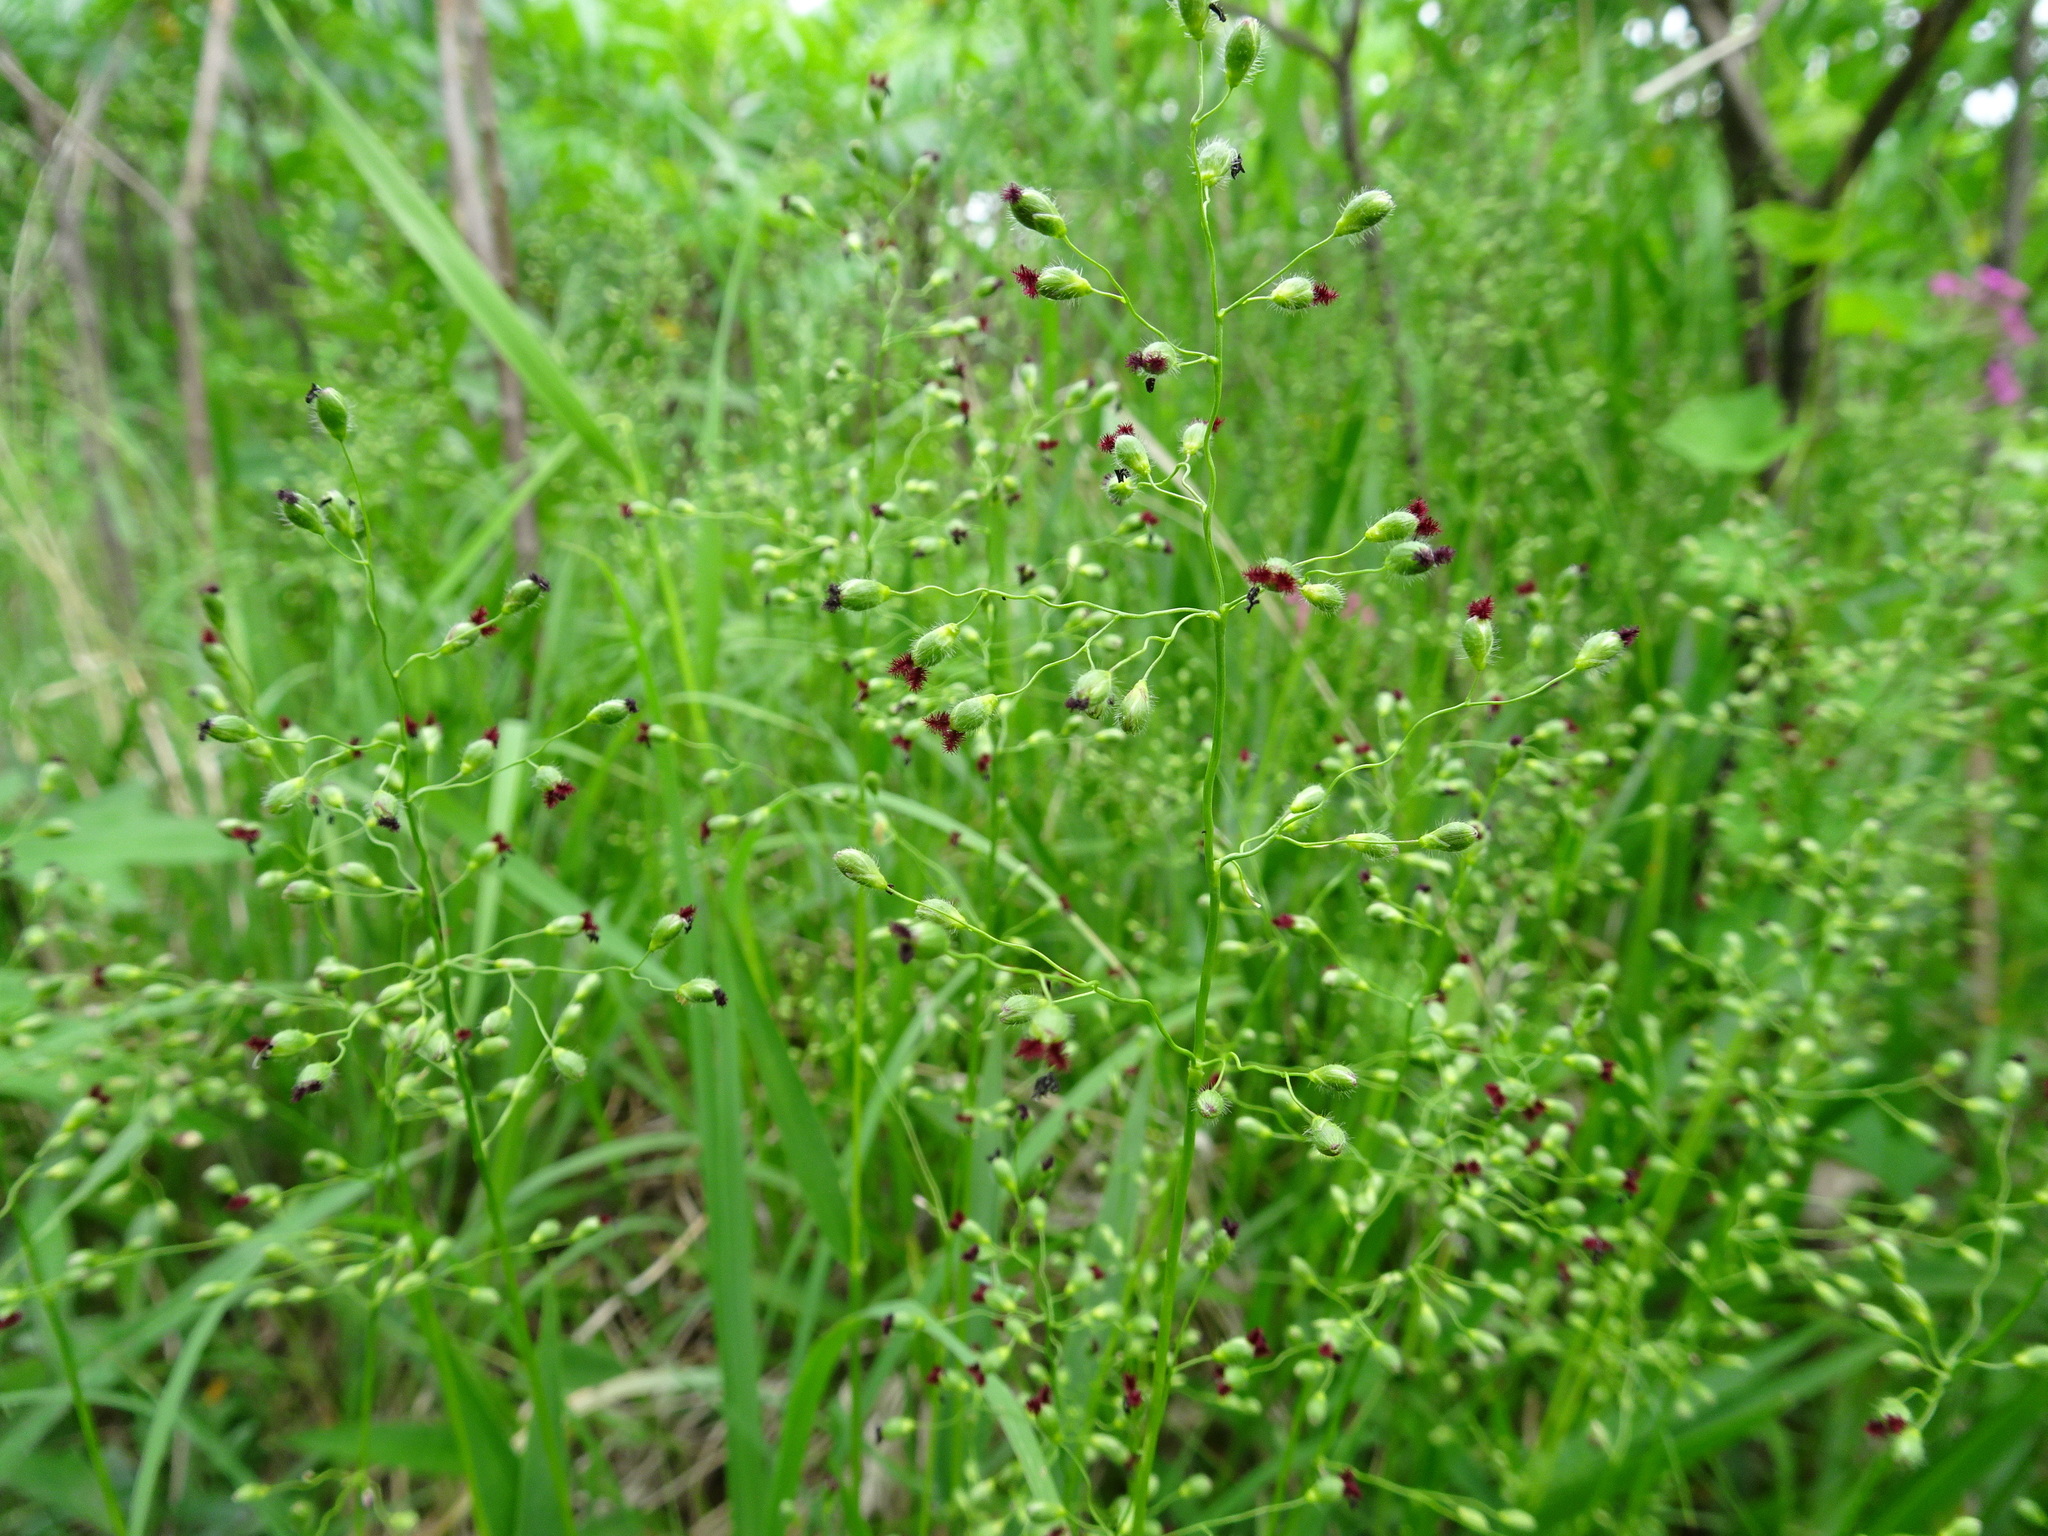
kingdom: Plantae
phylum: Tracheophyta
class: Liliopsida
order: Poales
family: Poaceae
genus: Dichanthelium
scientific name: Dichanthelium leibergii
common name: Leiberg's panic grass
